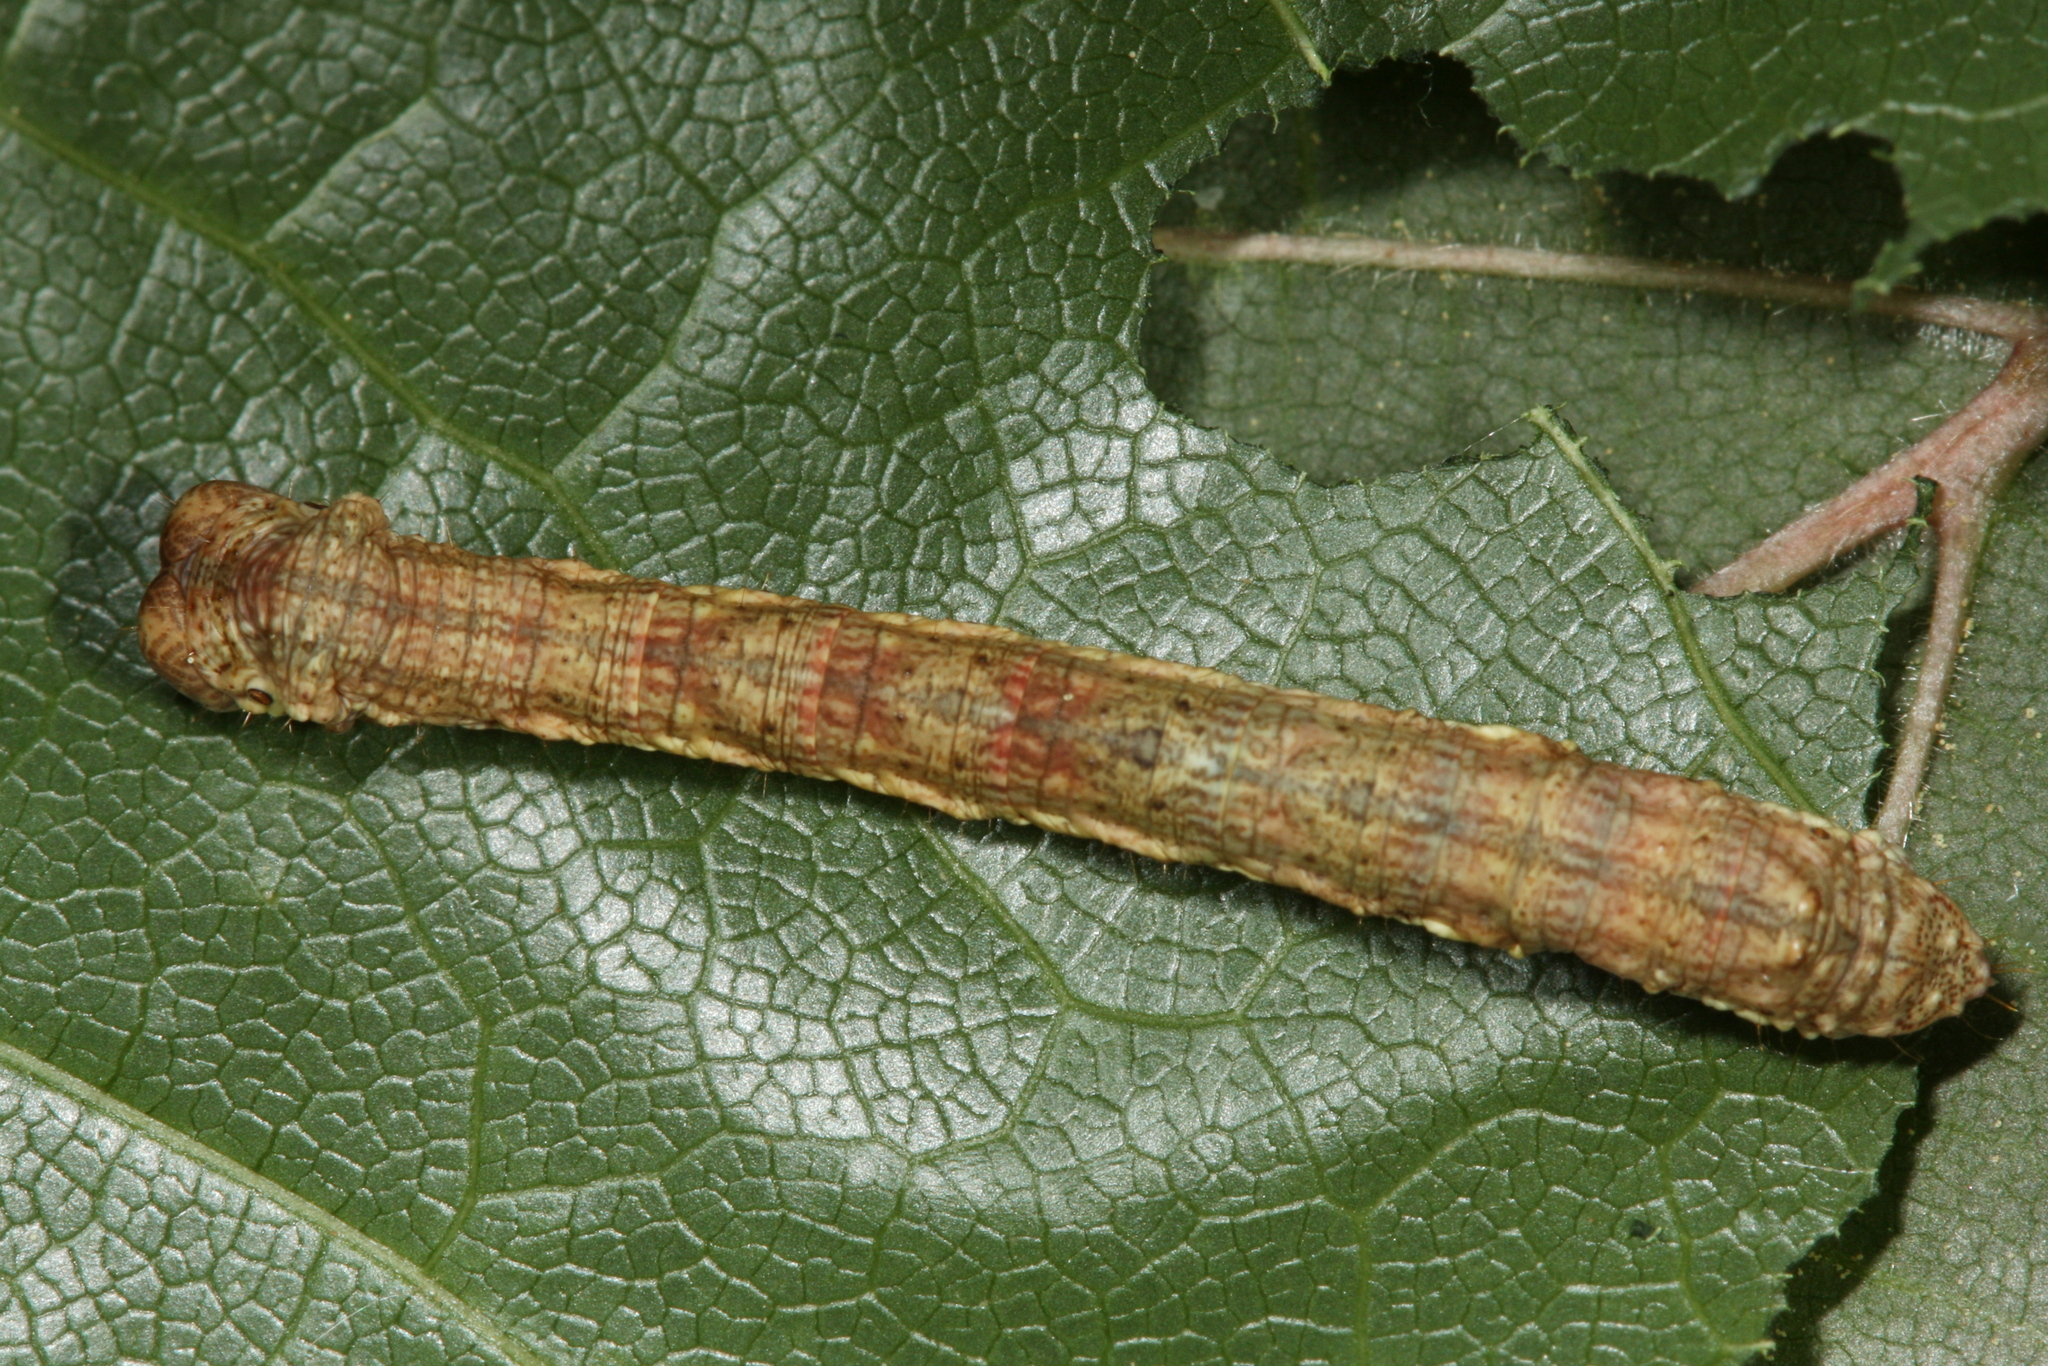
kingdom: Animalia
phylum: Arthropoda
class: Insecta
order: Lepidoptera
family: Geometridae
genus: Ectropis
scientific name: Ectropis crepuscularia
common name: Engrailed
